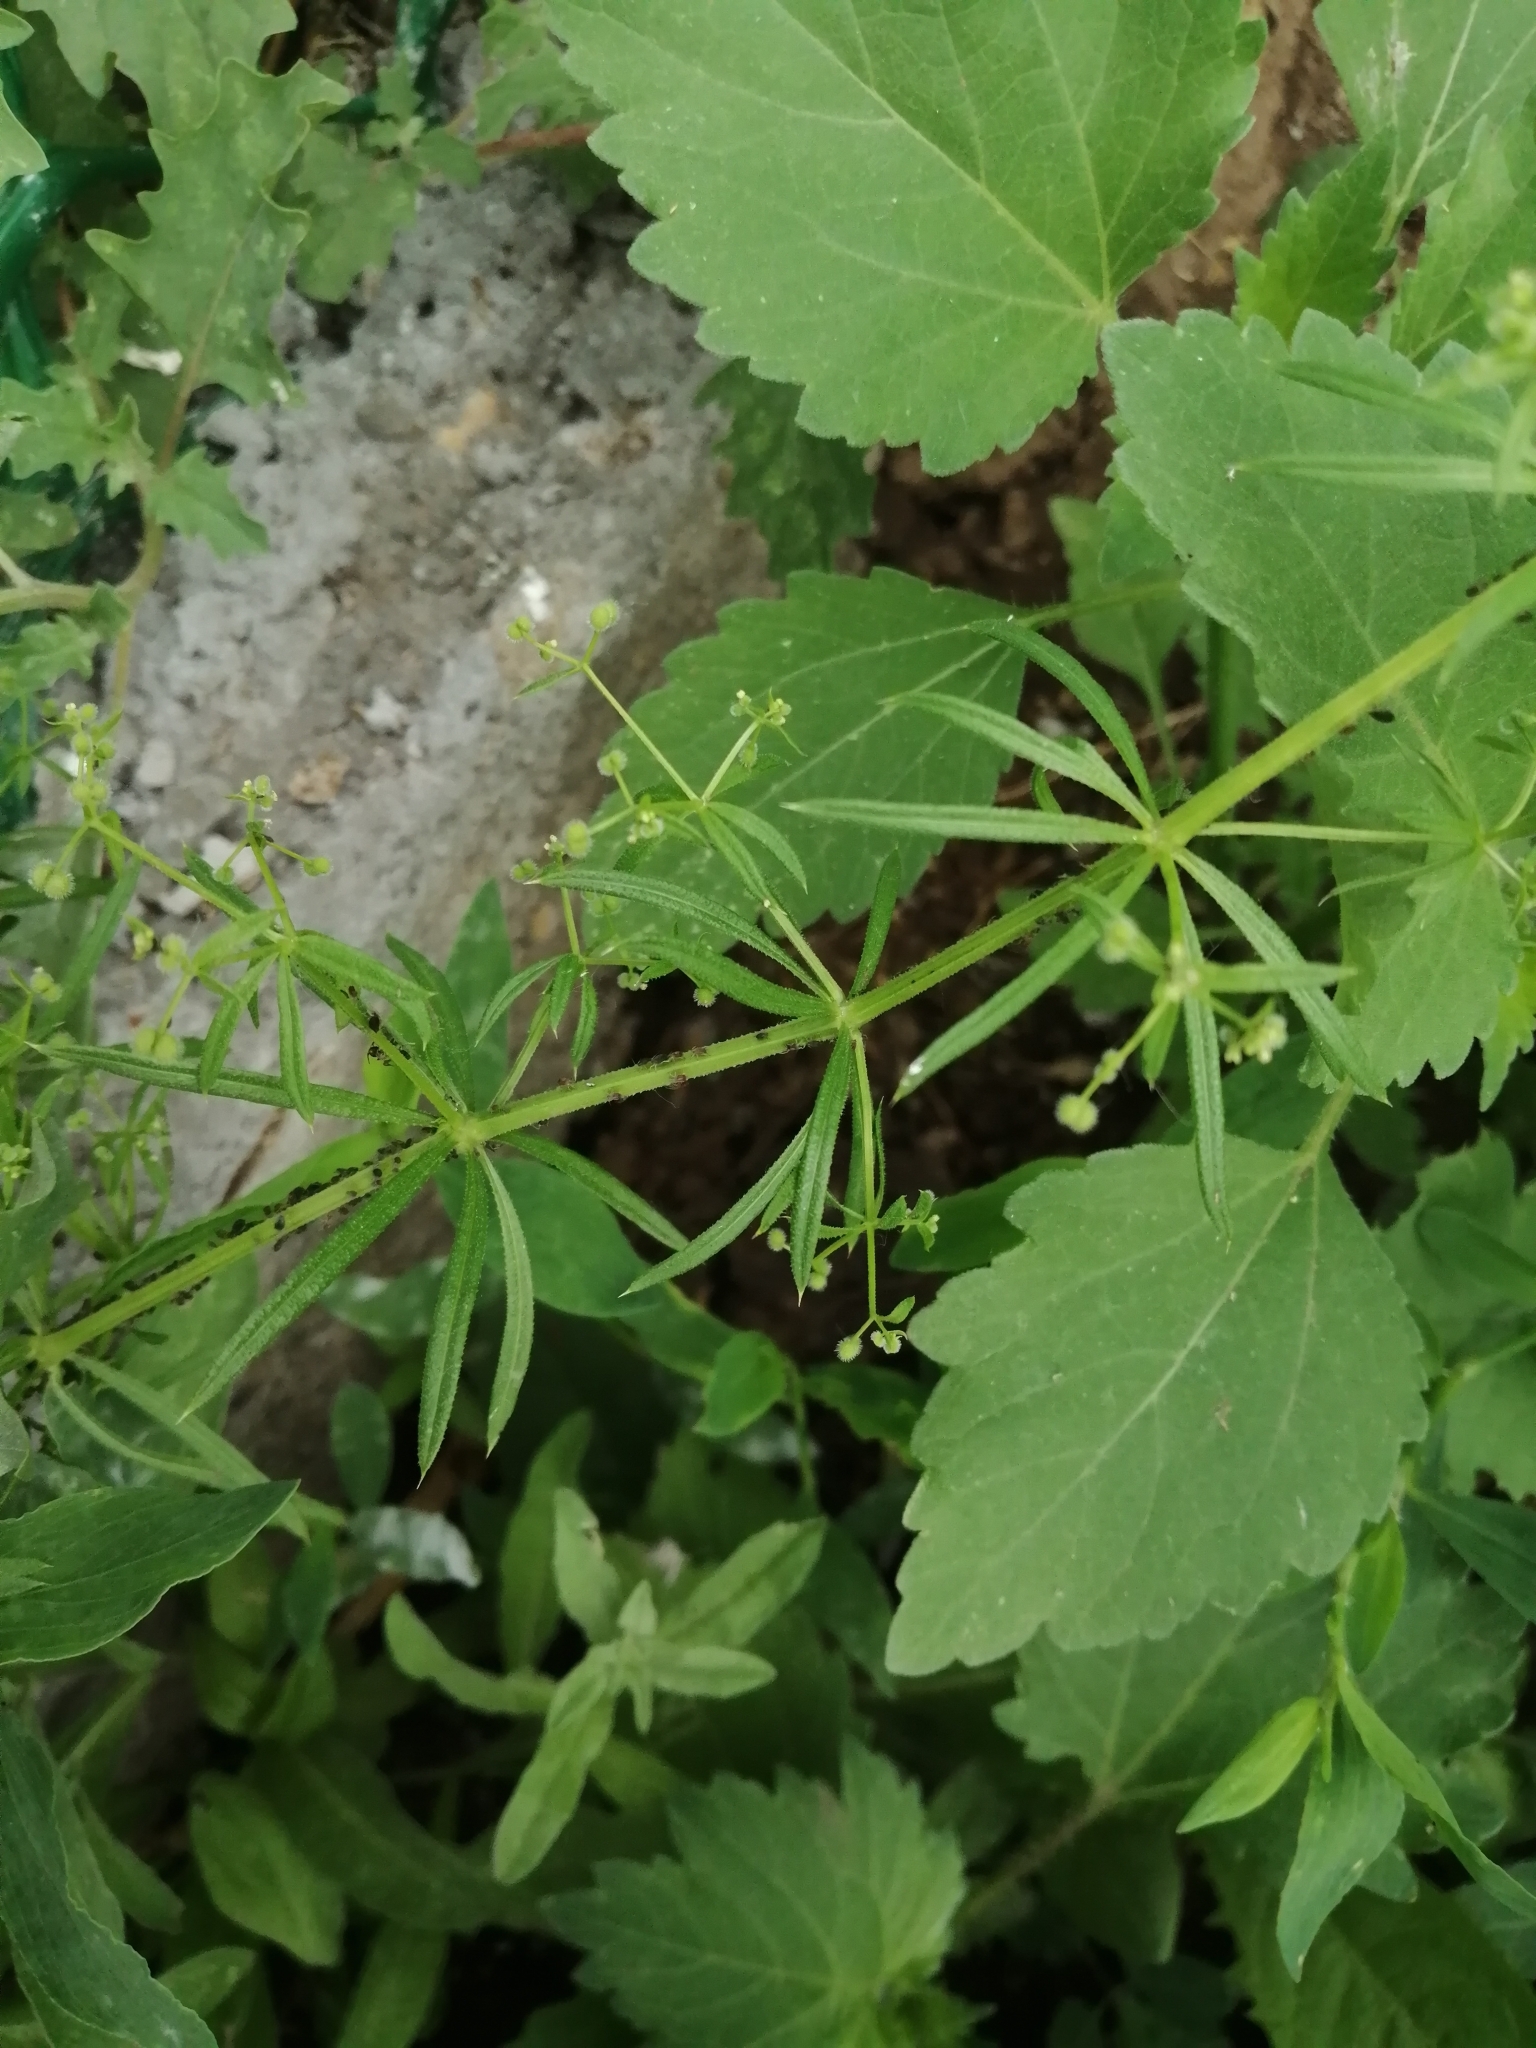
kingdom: Plantae
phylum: Tracheophyta
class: Magnoliopsida
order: Gentianales
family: Rubiaceae
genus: Galium
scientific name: Galium
